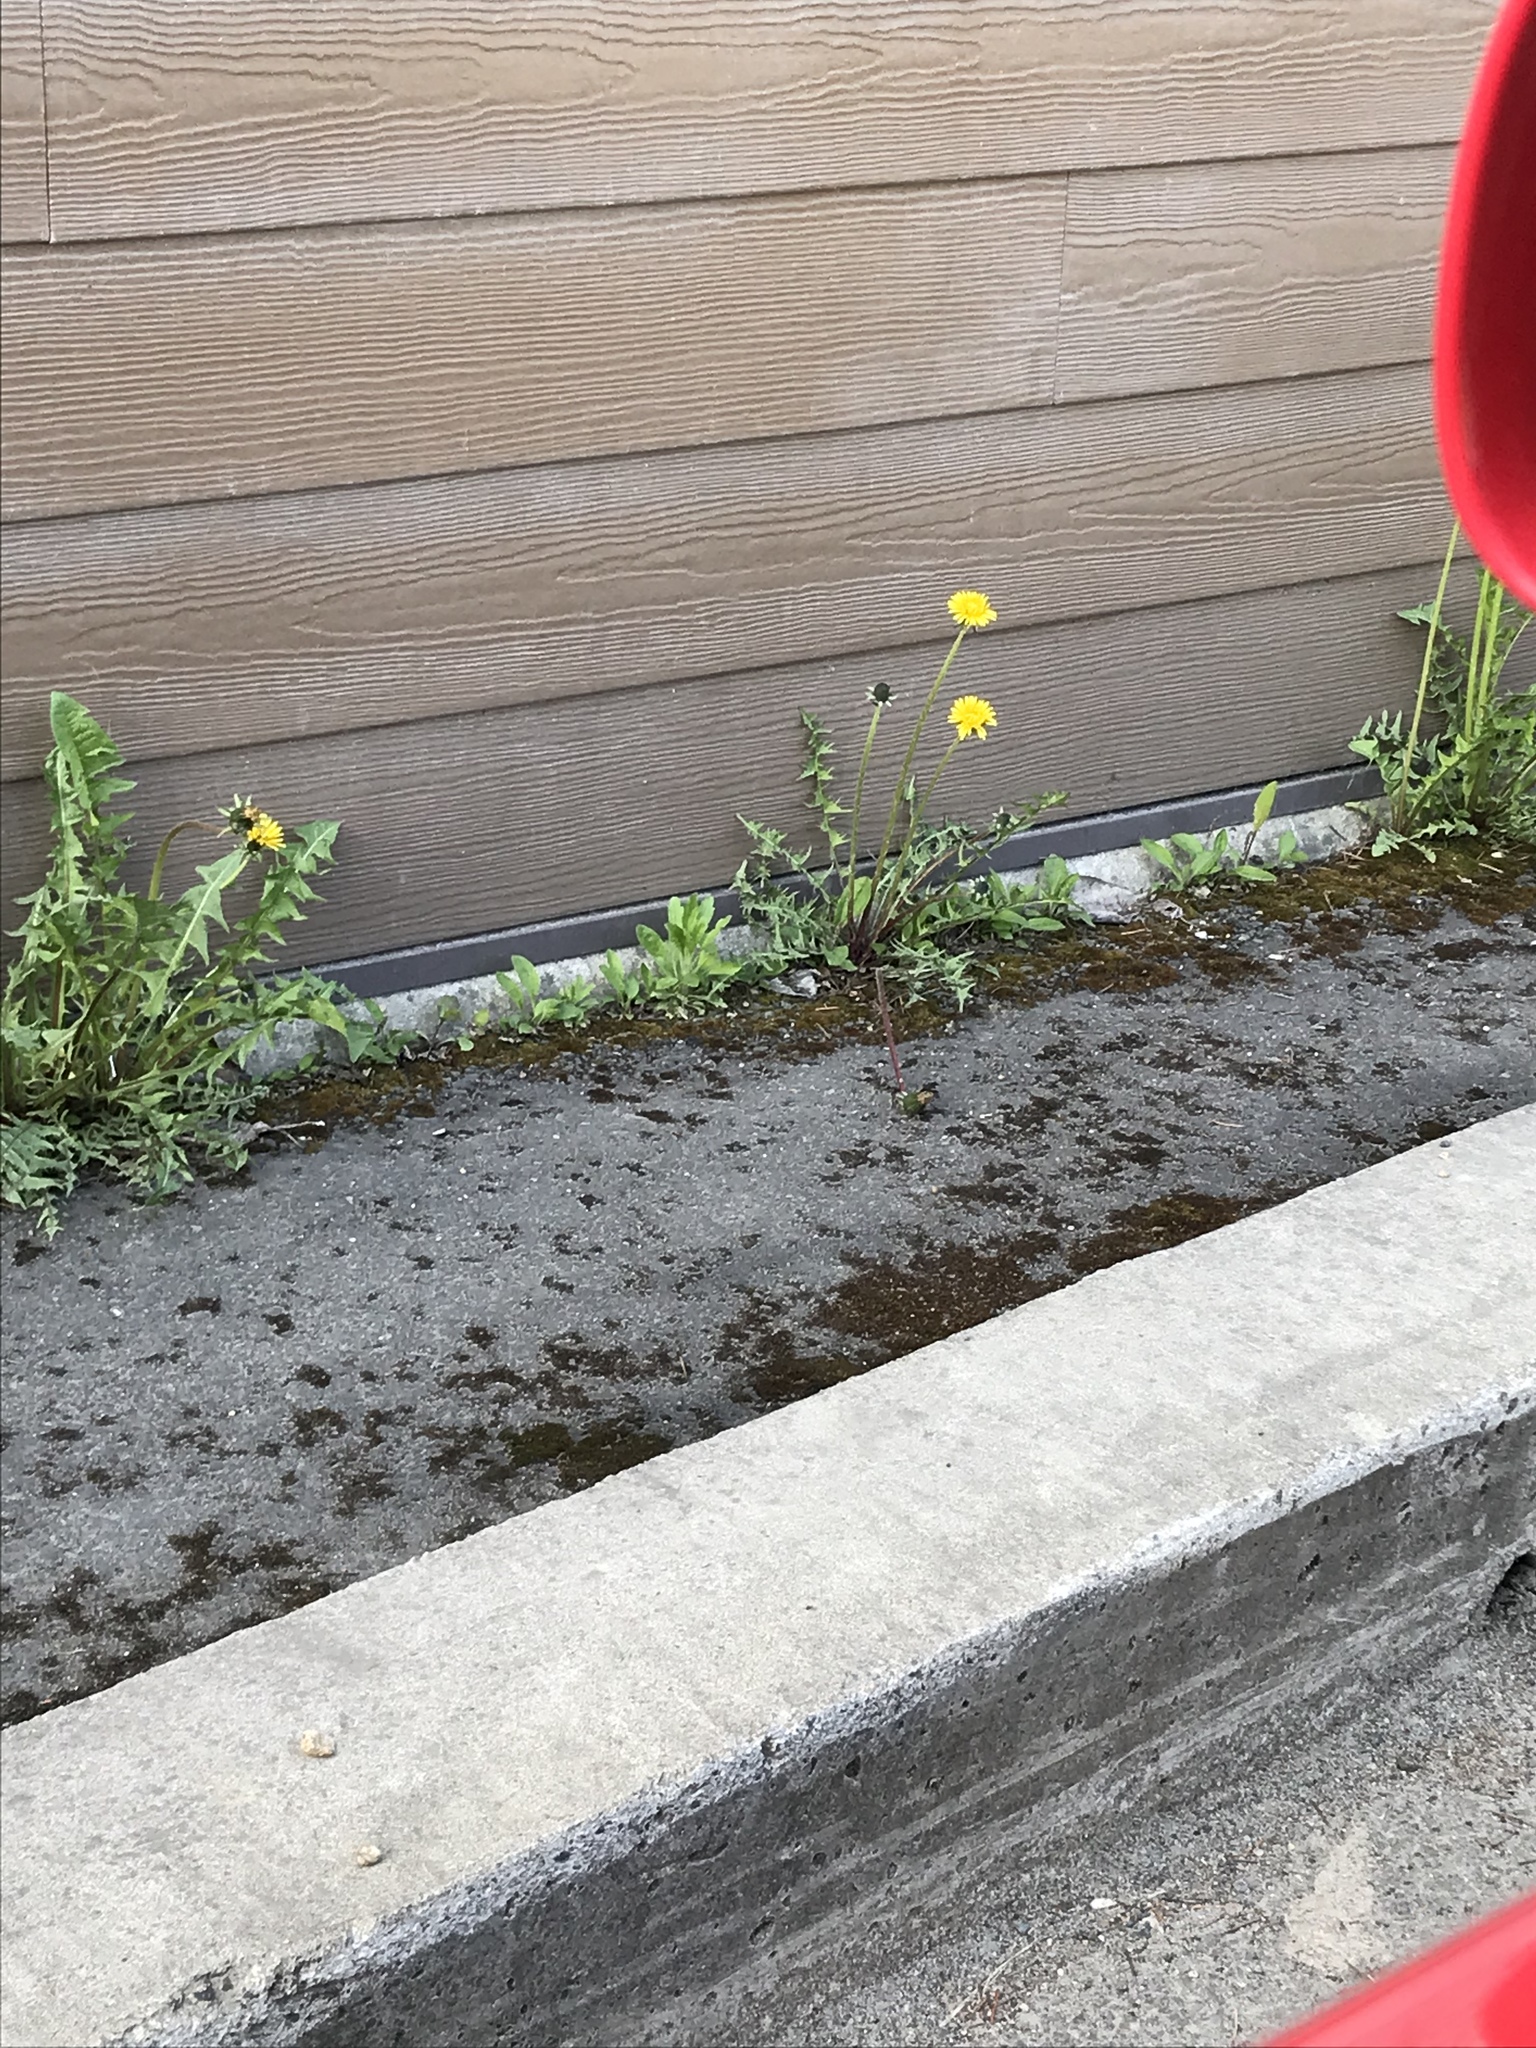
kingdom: Plantae
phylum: Tracheophyta
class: Magnoliopsida
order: Asterales
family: Asteraceae
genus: Taraxacum
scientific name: Taraxacum officinale
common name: Common dandelion
